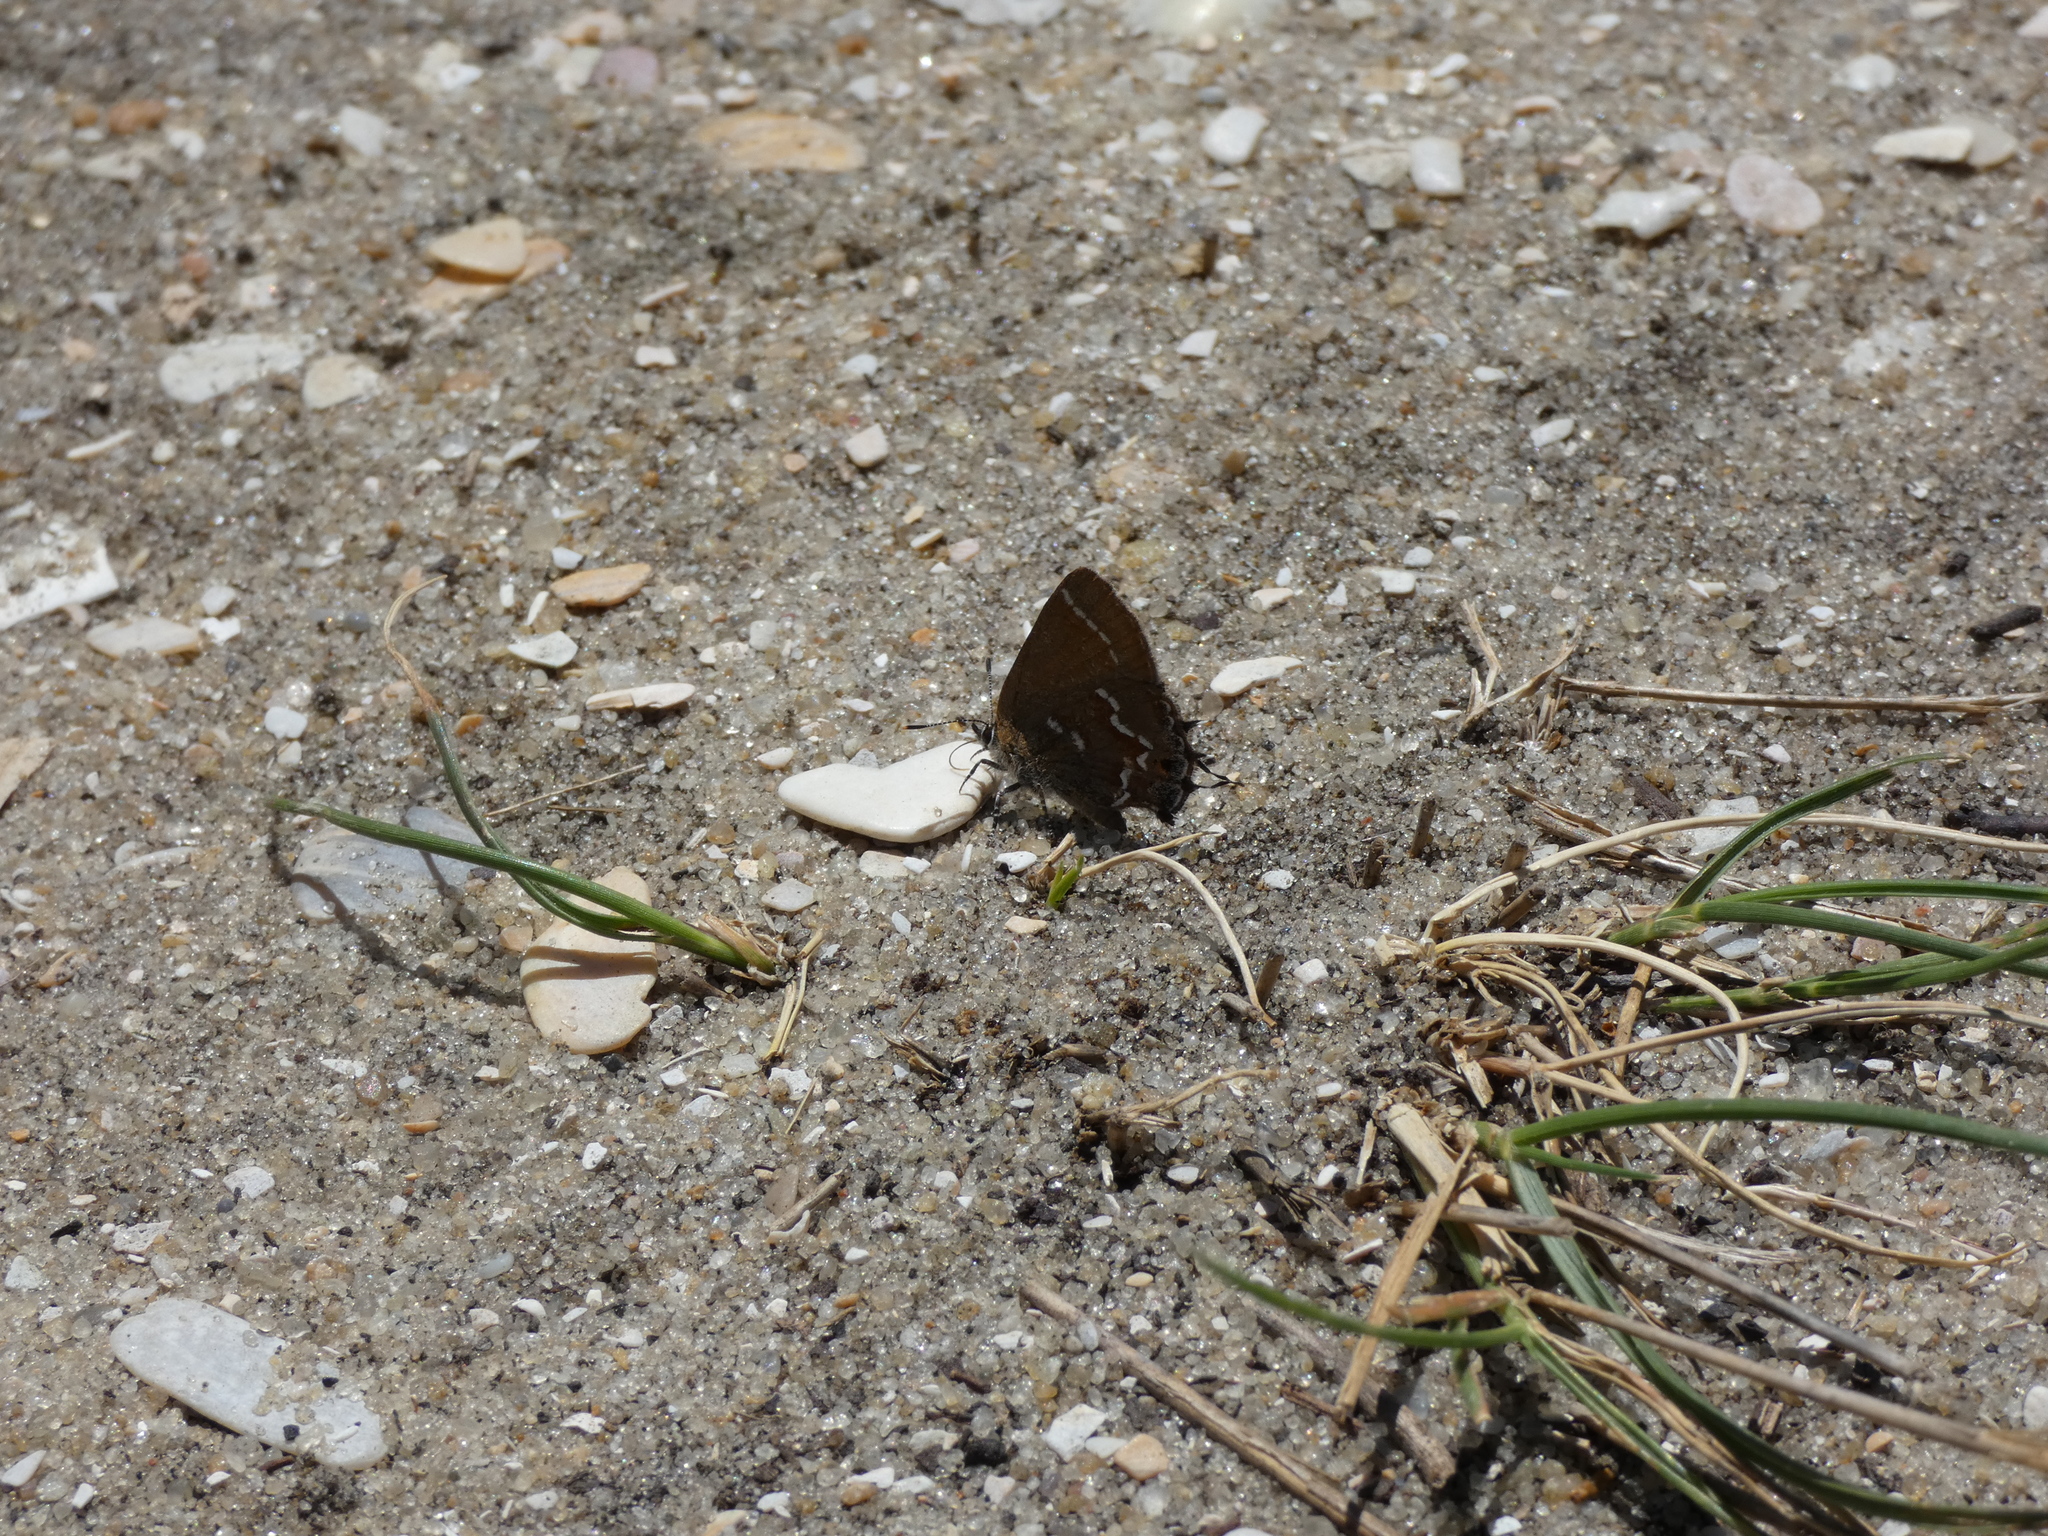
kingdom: Animalia
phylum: Arthropoda
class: Insecta
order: Lepidoptera
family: Lycaenidae
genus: Mitoura
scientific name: Mitoura gryneus
